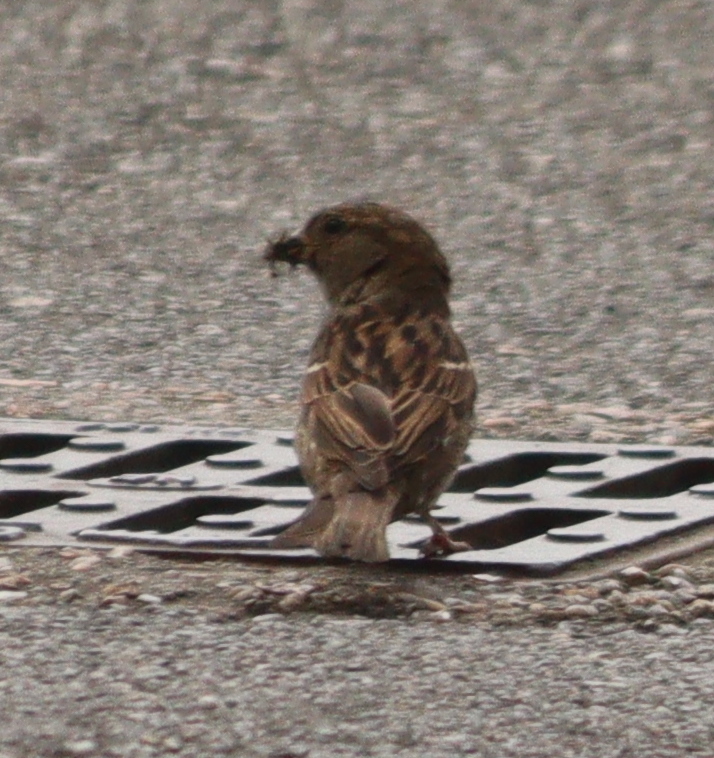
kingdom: Animalia
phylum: Chordata
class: Aves
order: Passeriformes
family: Passeridae
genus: Passer
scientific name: Passer domesticus
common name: House sparrow
